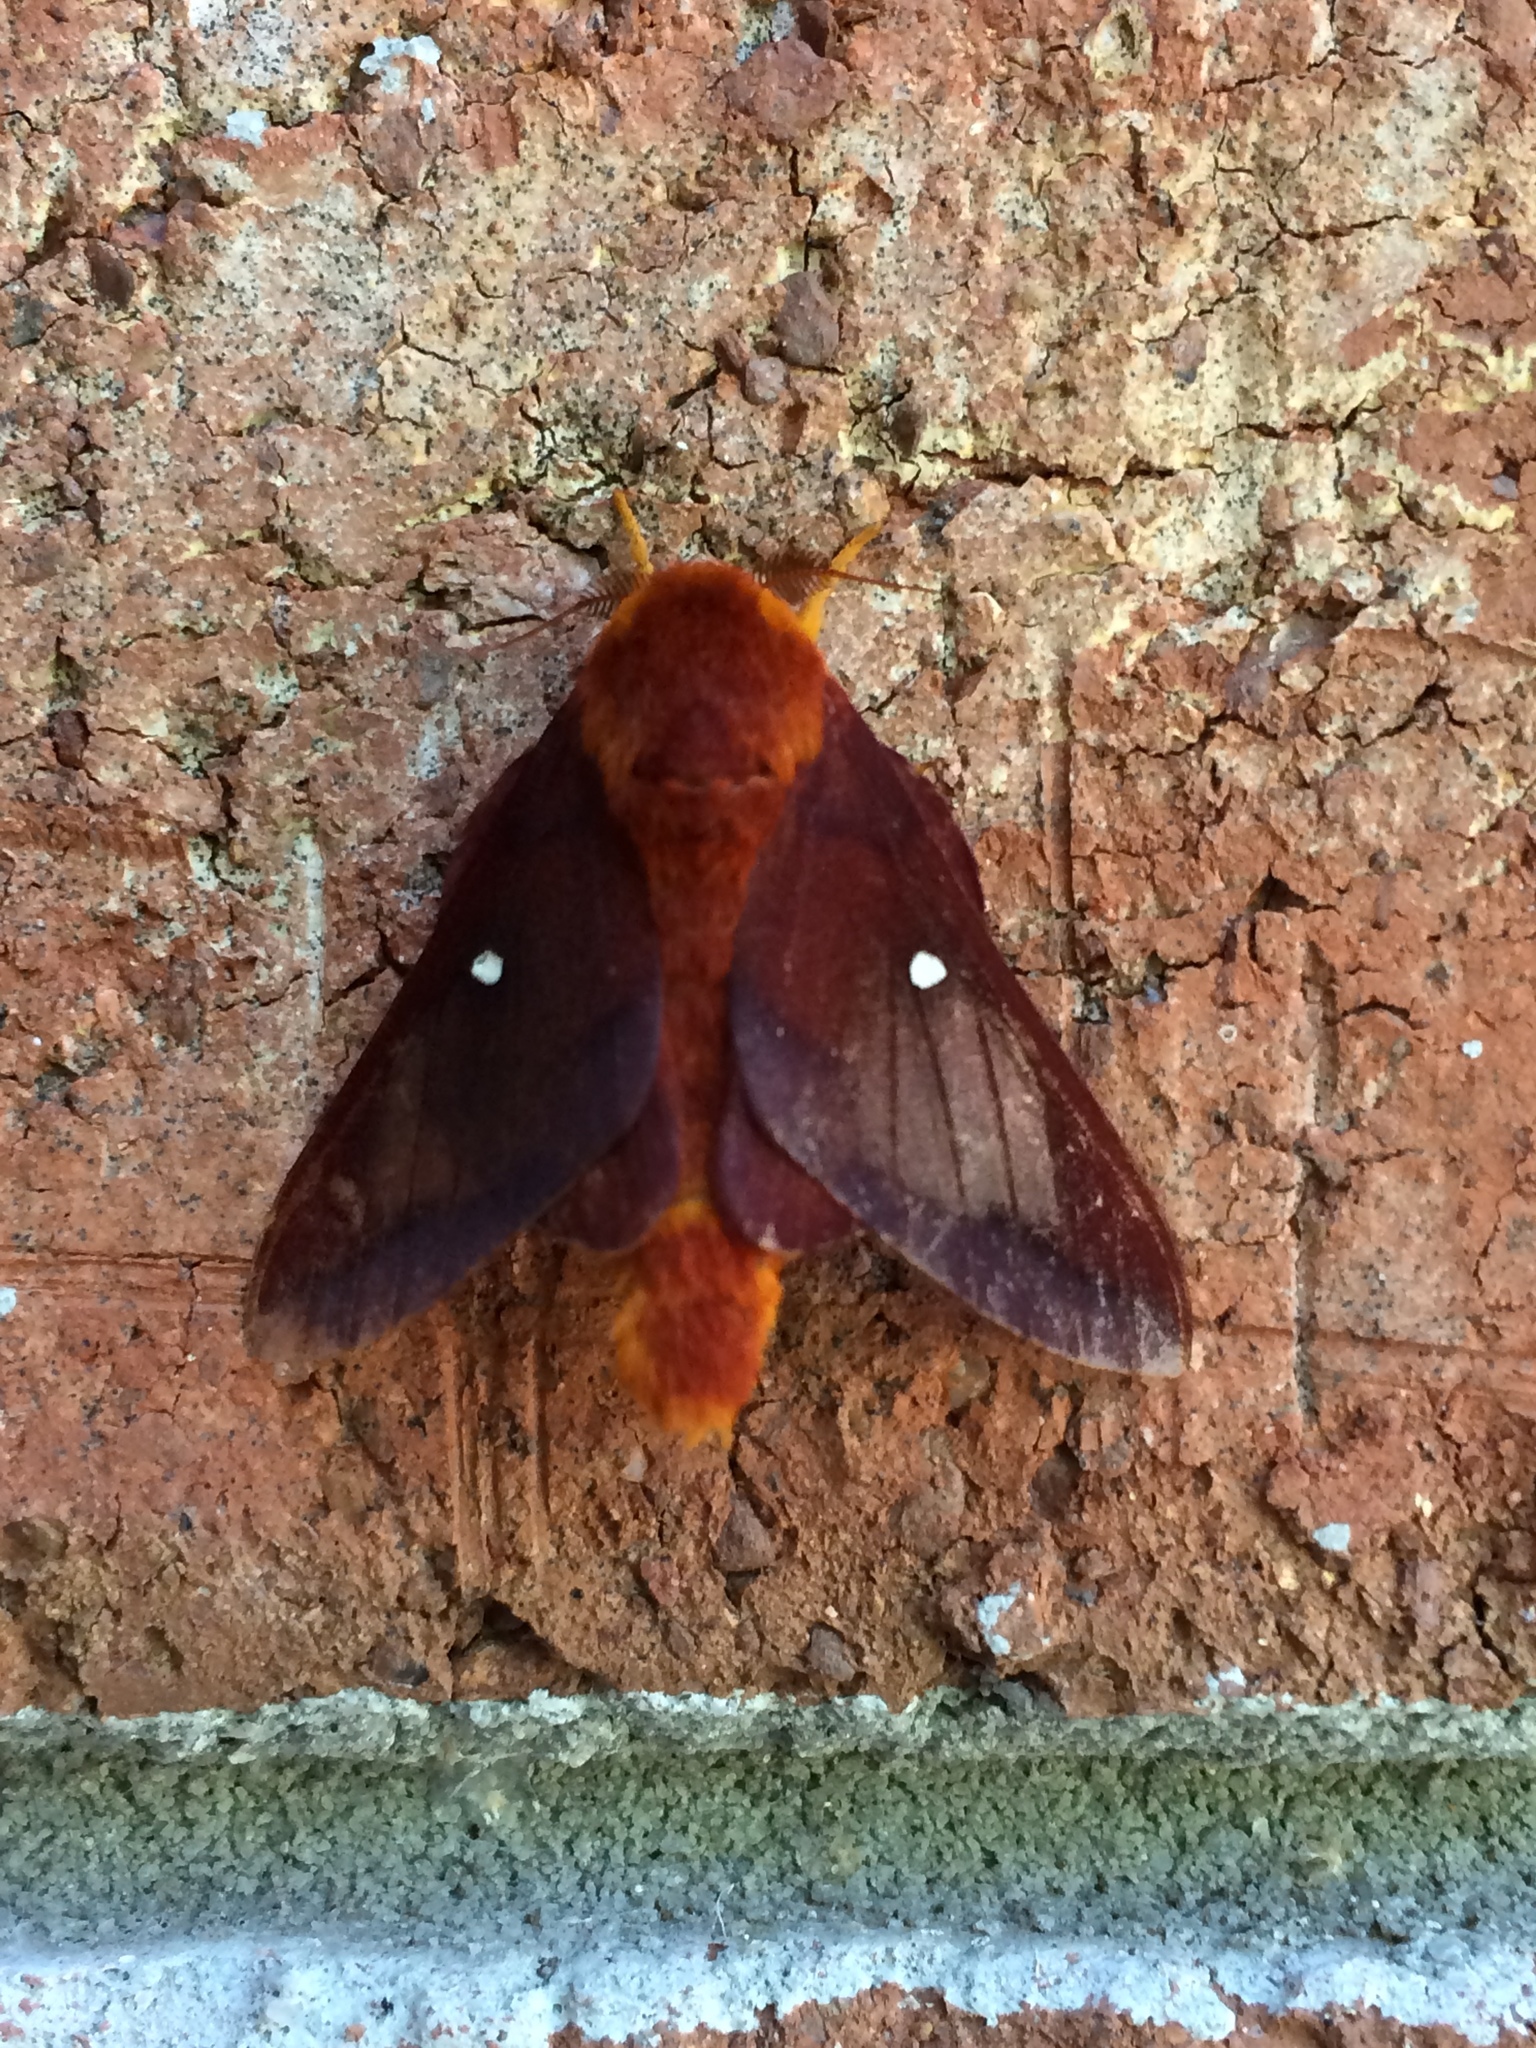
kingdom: Animalia
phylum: Arthropoda
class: Insecta
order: Lepidoptera
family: Saturniidae
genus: Anisota
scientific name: Anisota virginiensis
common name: Pink striped oakworm moth
